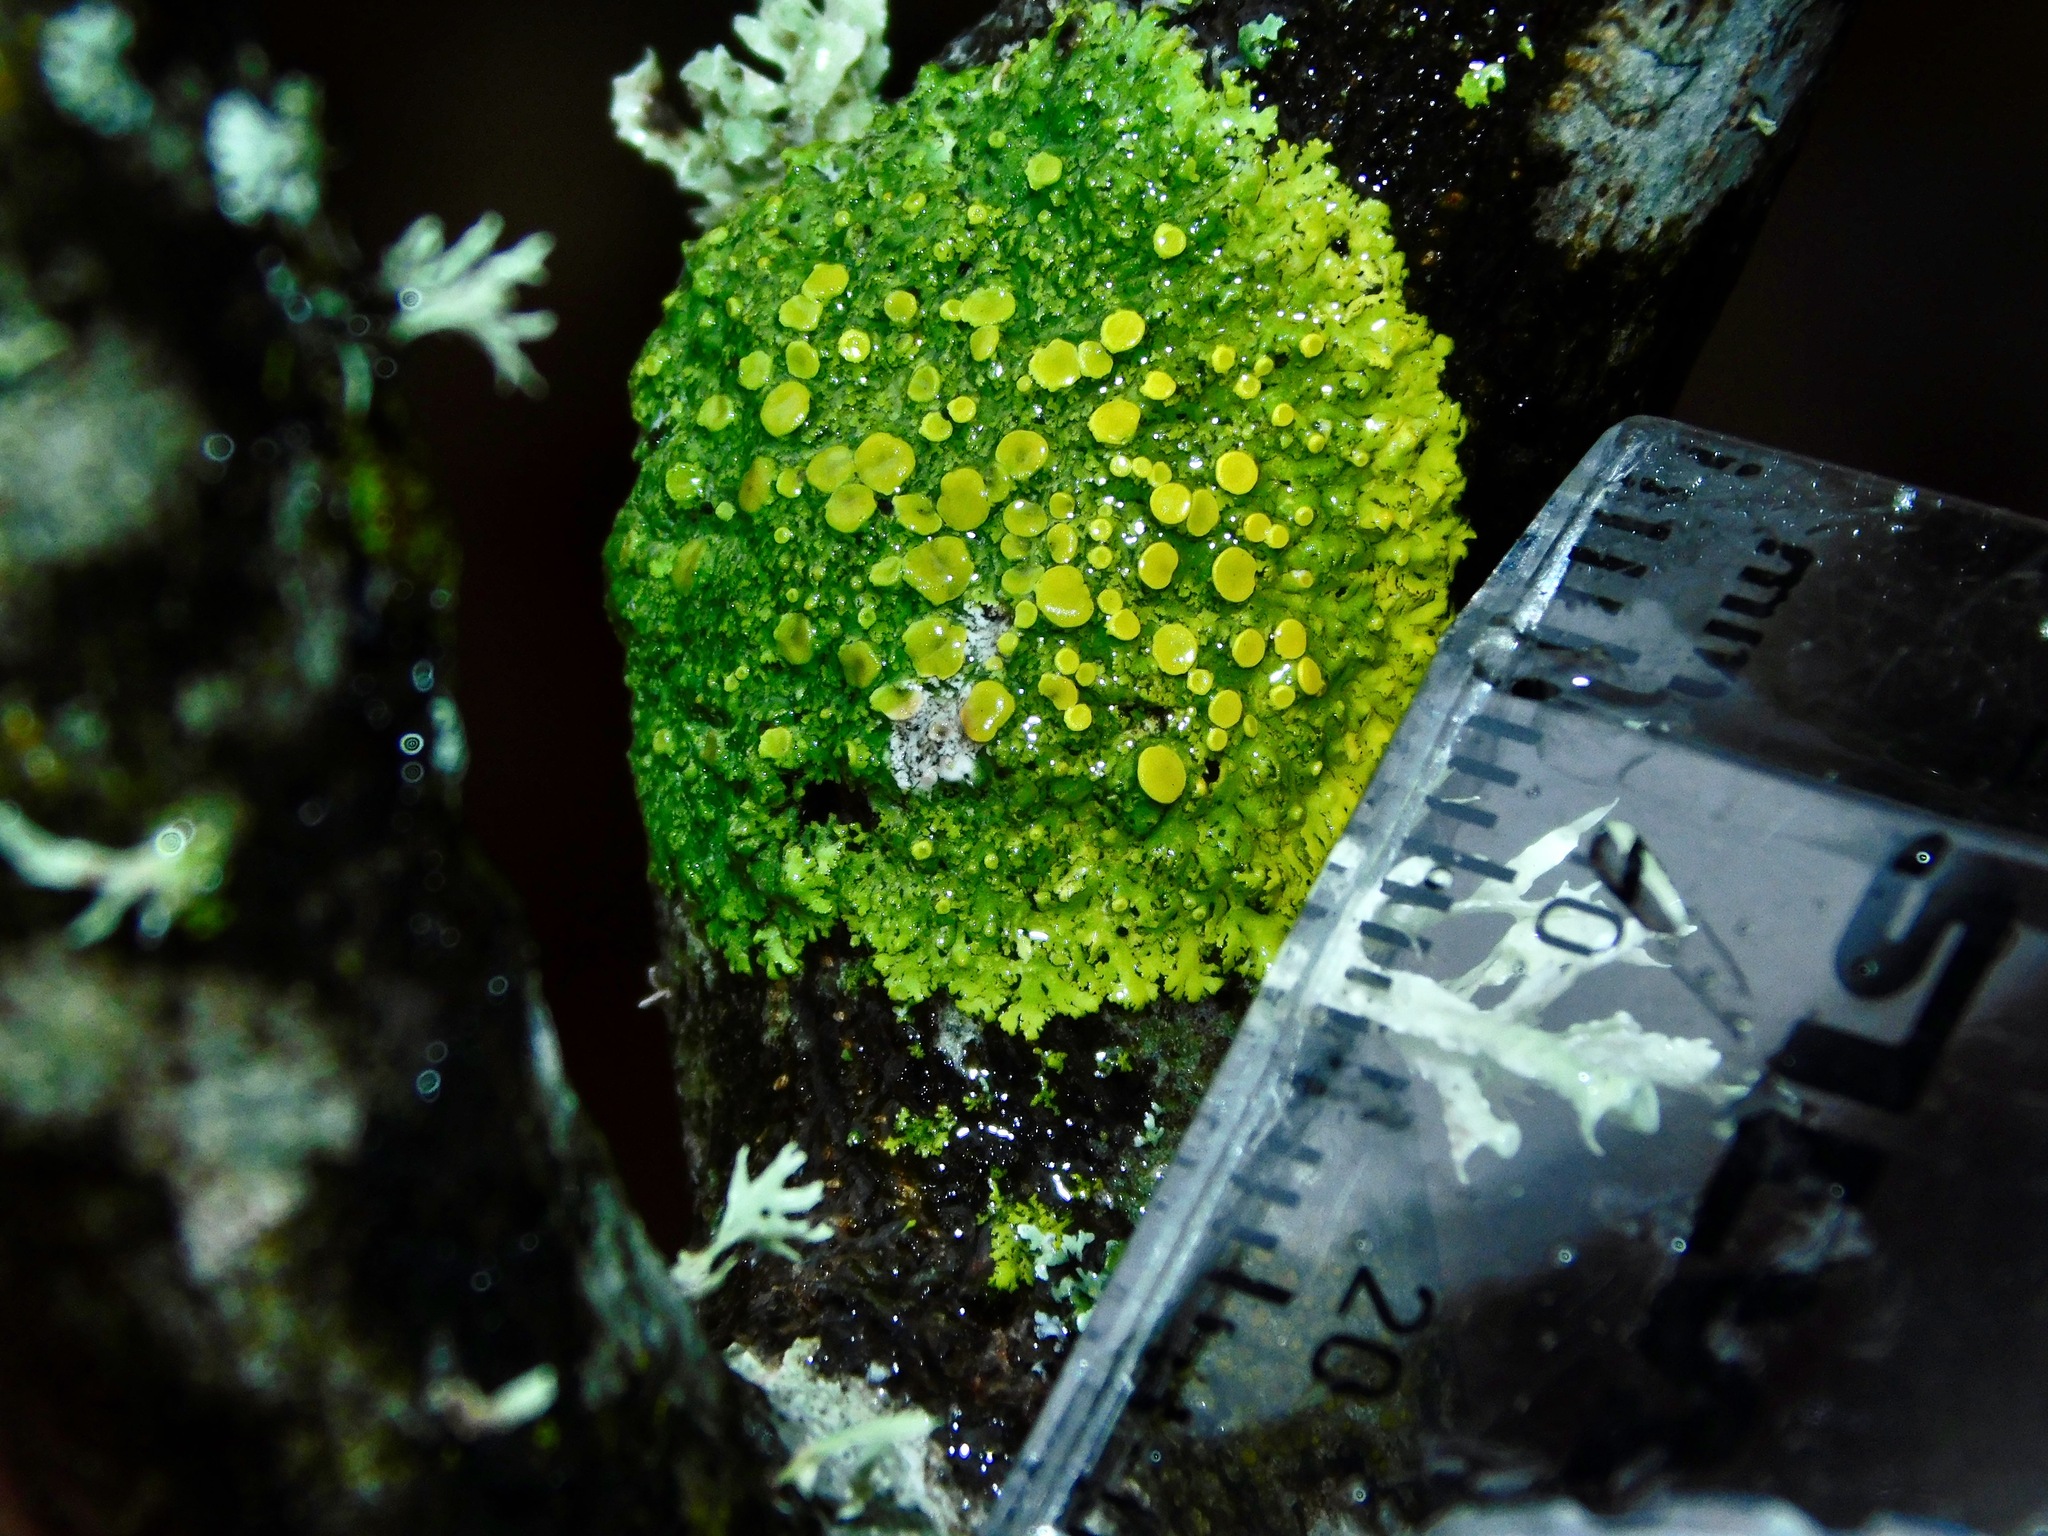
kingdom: Fungi
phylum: Ascomycota
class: Lecanoromycetes
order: Teloschistales
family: Teloschistaceae
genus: Gallowayella
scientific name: Gallowayella hasseana
